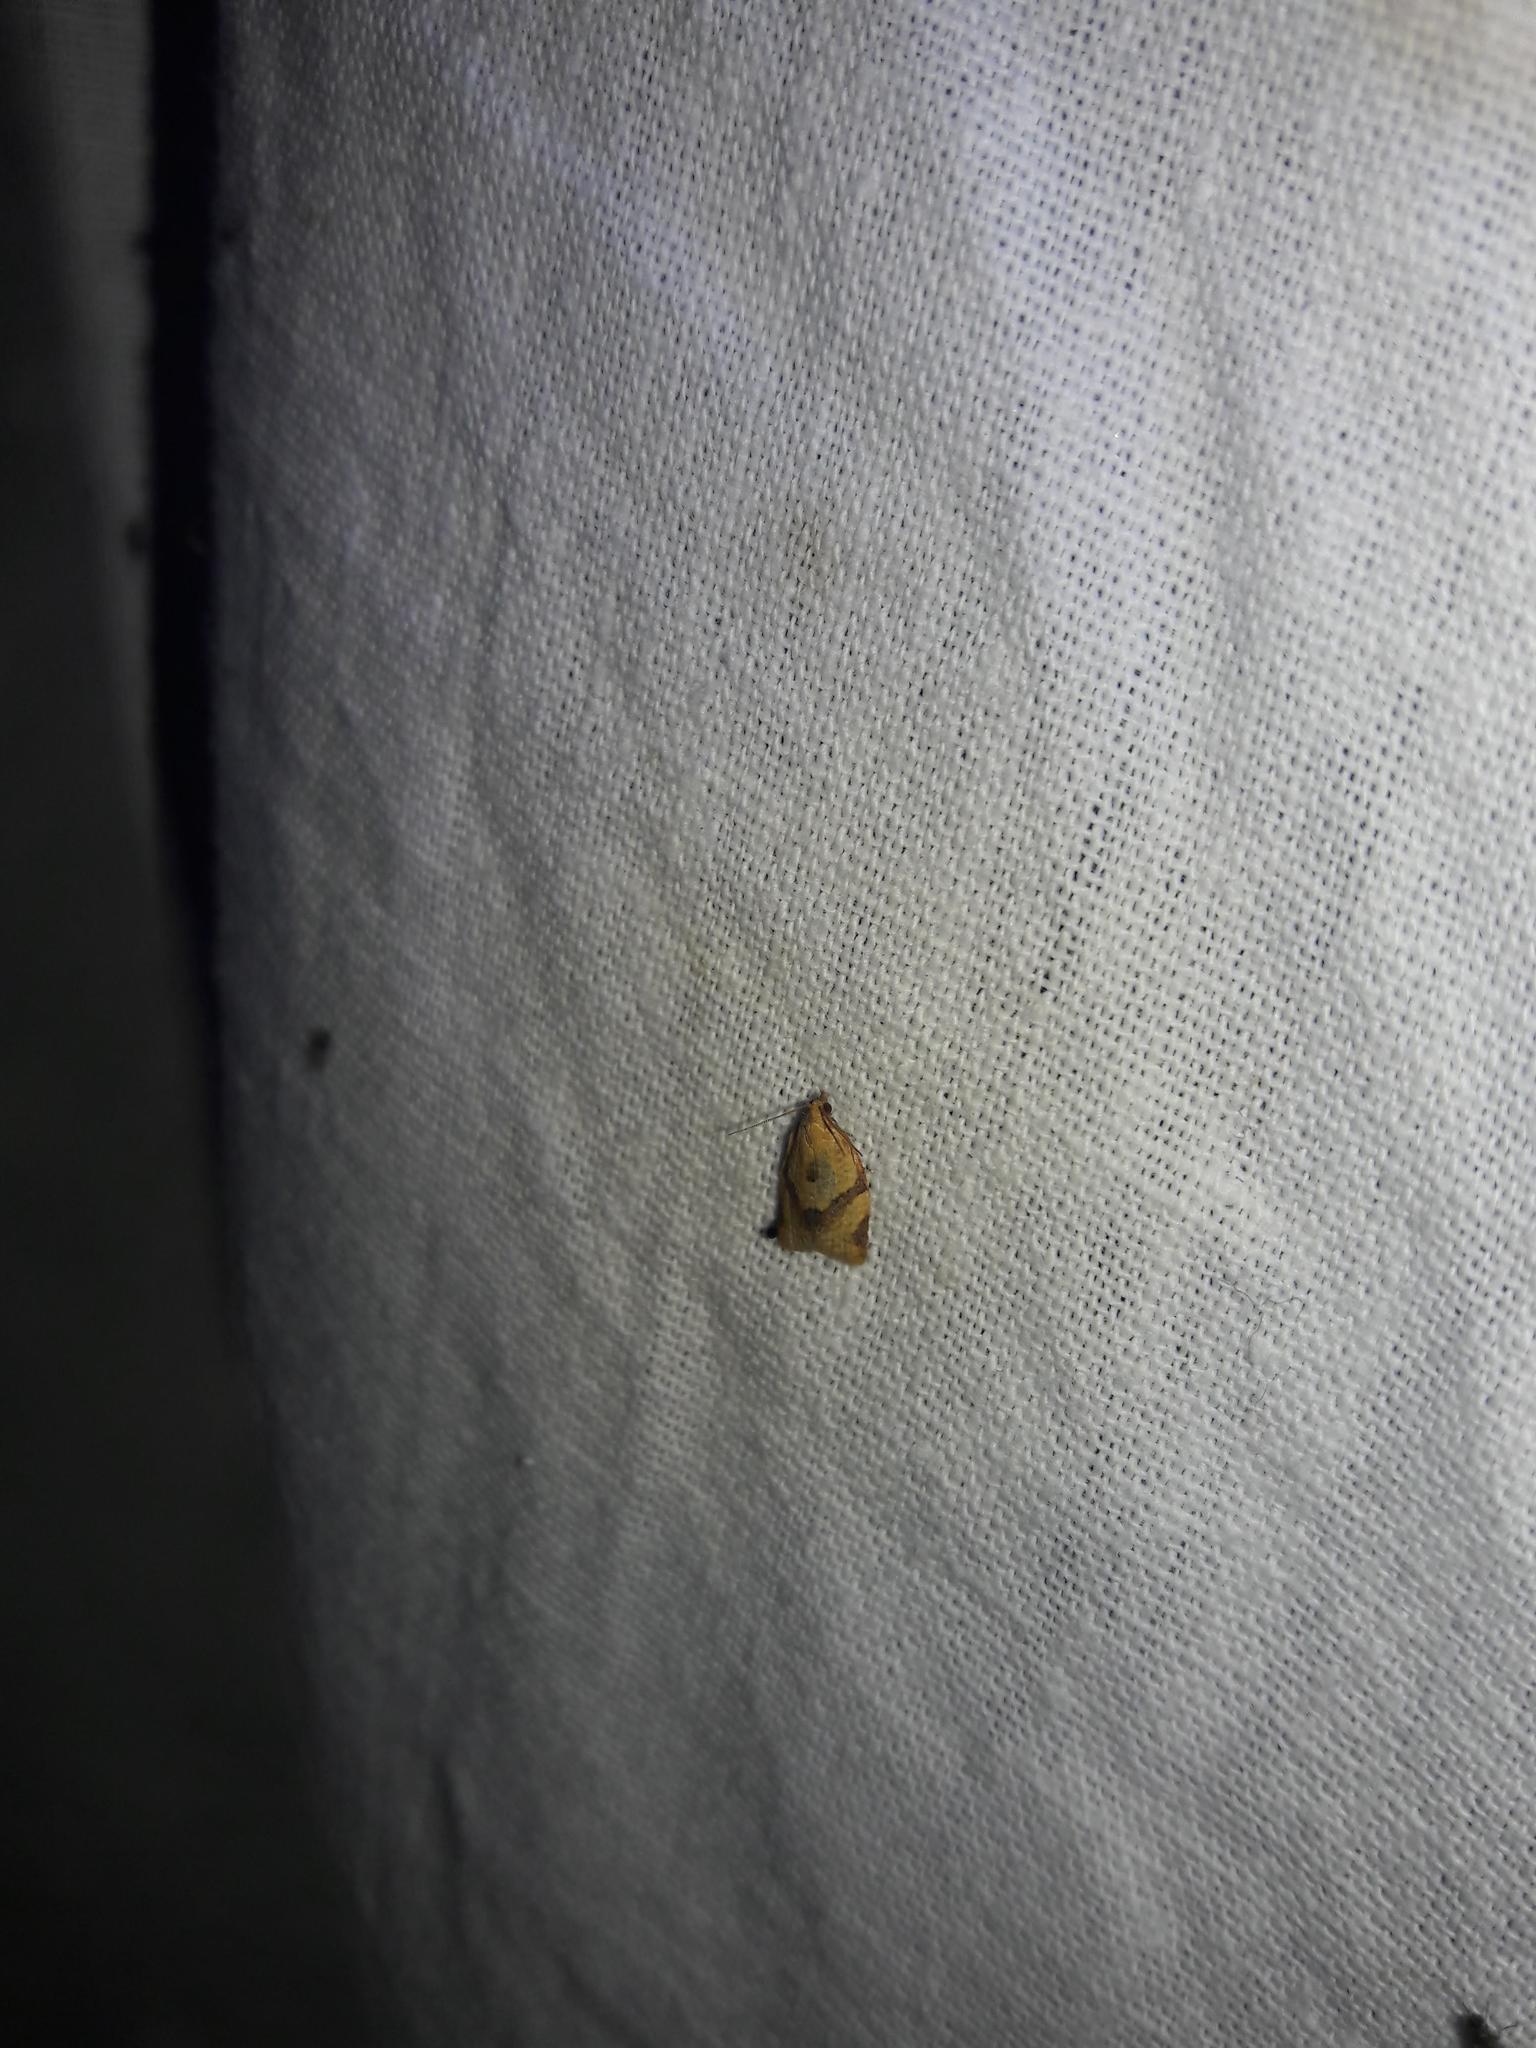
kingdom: Animalia
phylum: Arthropoda
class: Insecta
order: Lepidoptera
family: Tortricidae
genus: Clepsis
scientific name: Clepsis consimilana
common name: Privet tortrix
